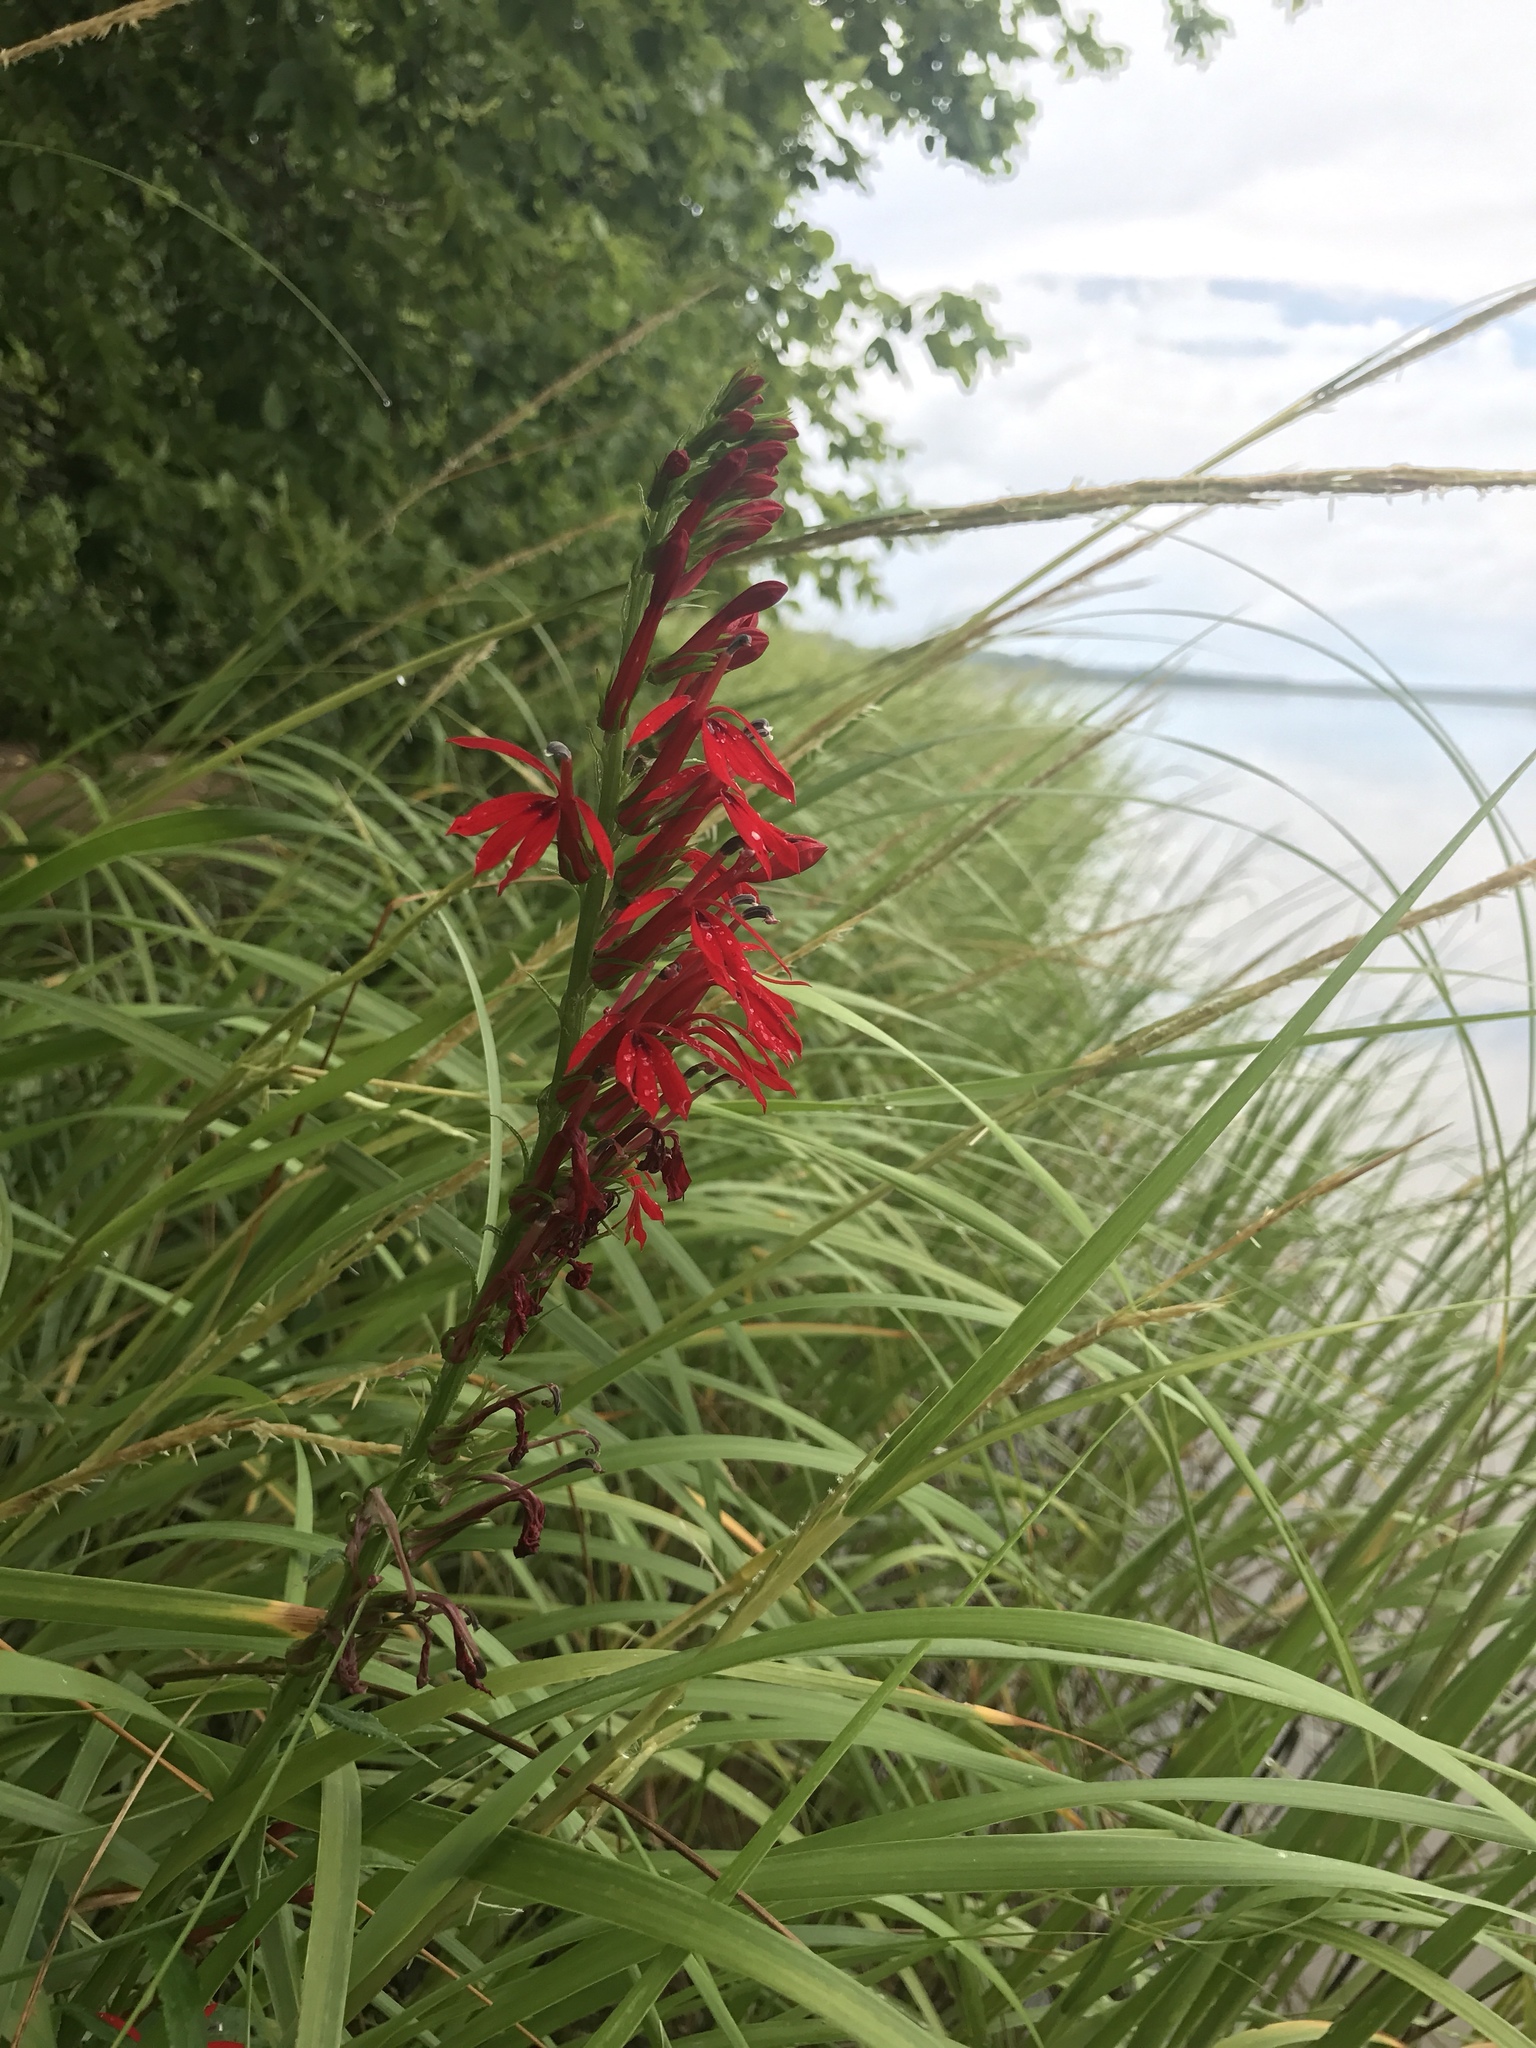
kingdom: Plantae
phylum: Tracheophyta
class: Magnoliopsida
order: Asterales
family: Campanulaceae
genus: Lobelia
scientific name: Lobelia cardinalis
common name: Cardinal flower
